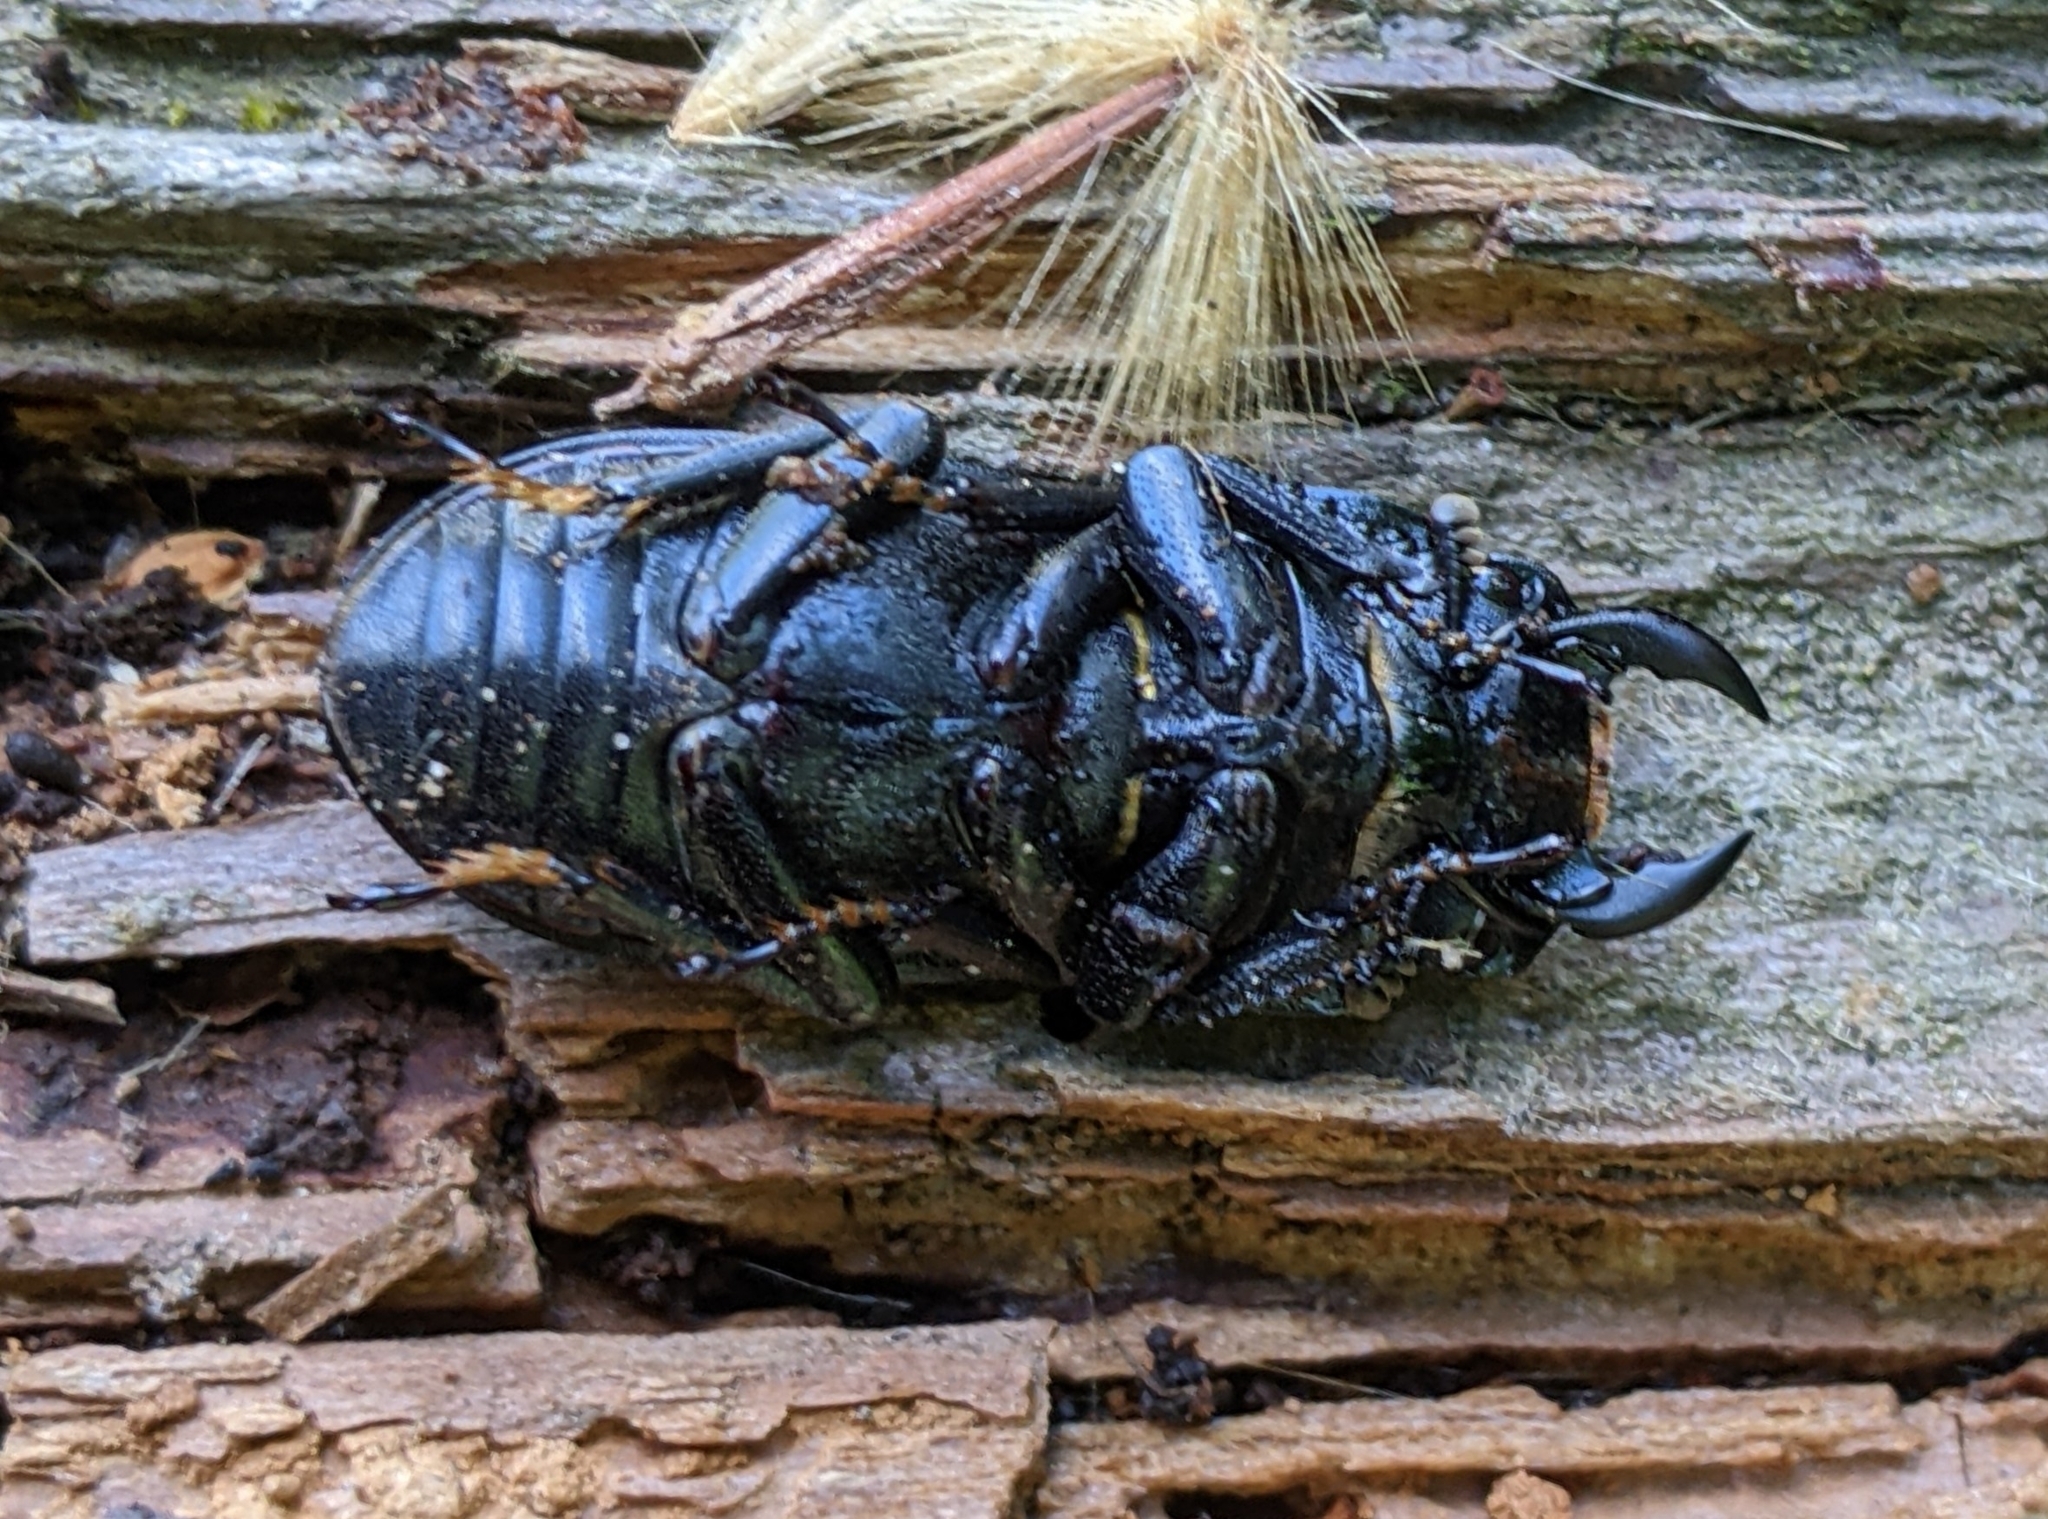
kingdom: Animalia
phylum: Arthropoda
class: Insecta
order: Coleoptera
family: Lucanidae
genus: Dorcus
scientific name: Dorcus parallelipipedus
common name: Lesser stag beetle
